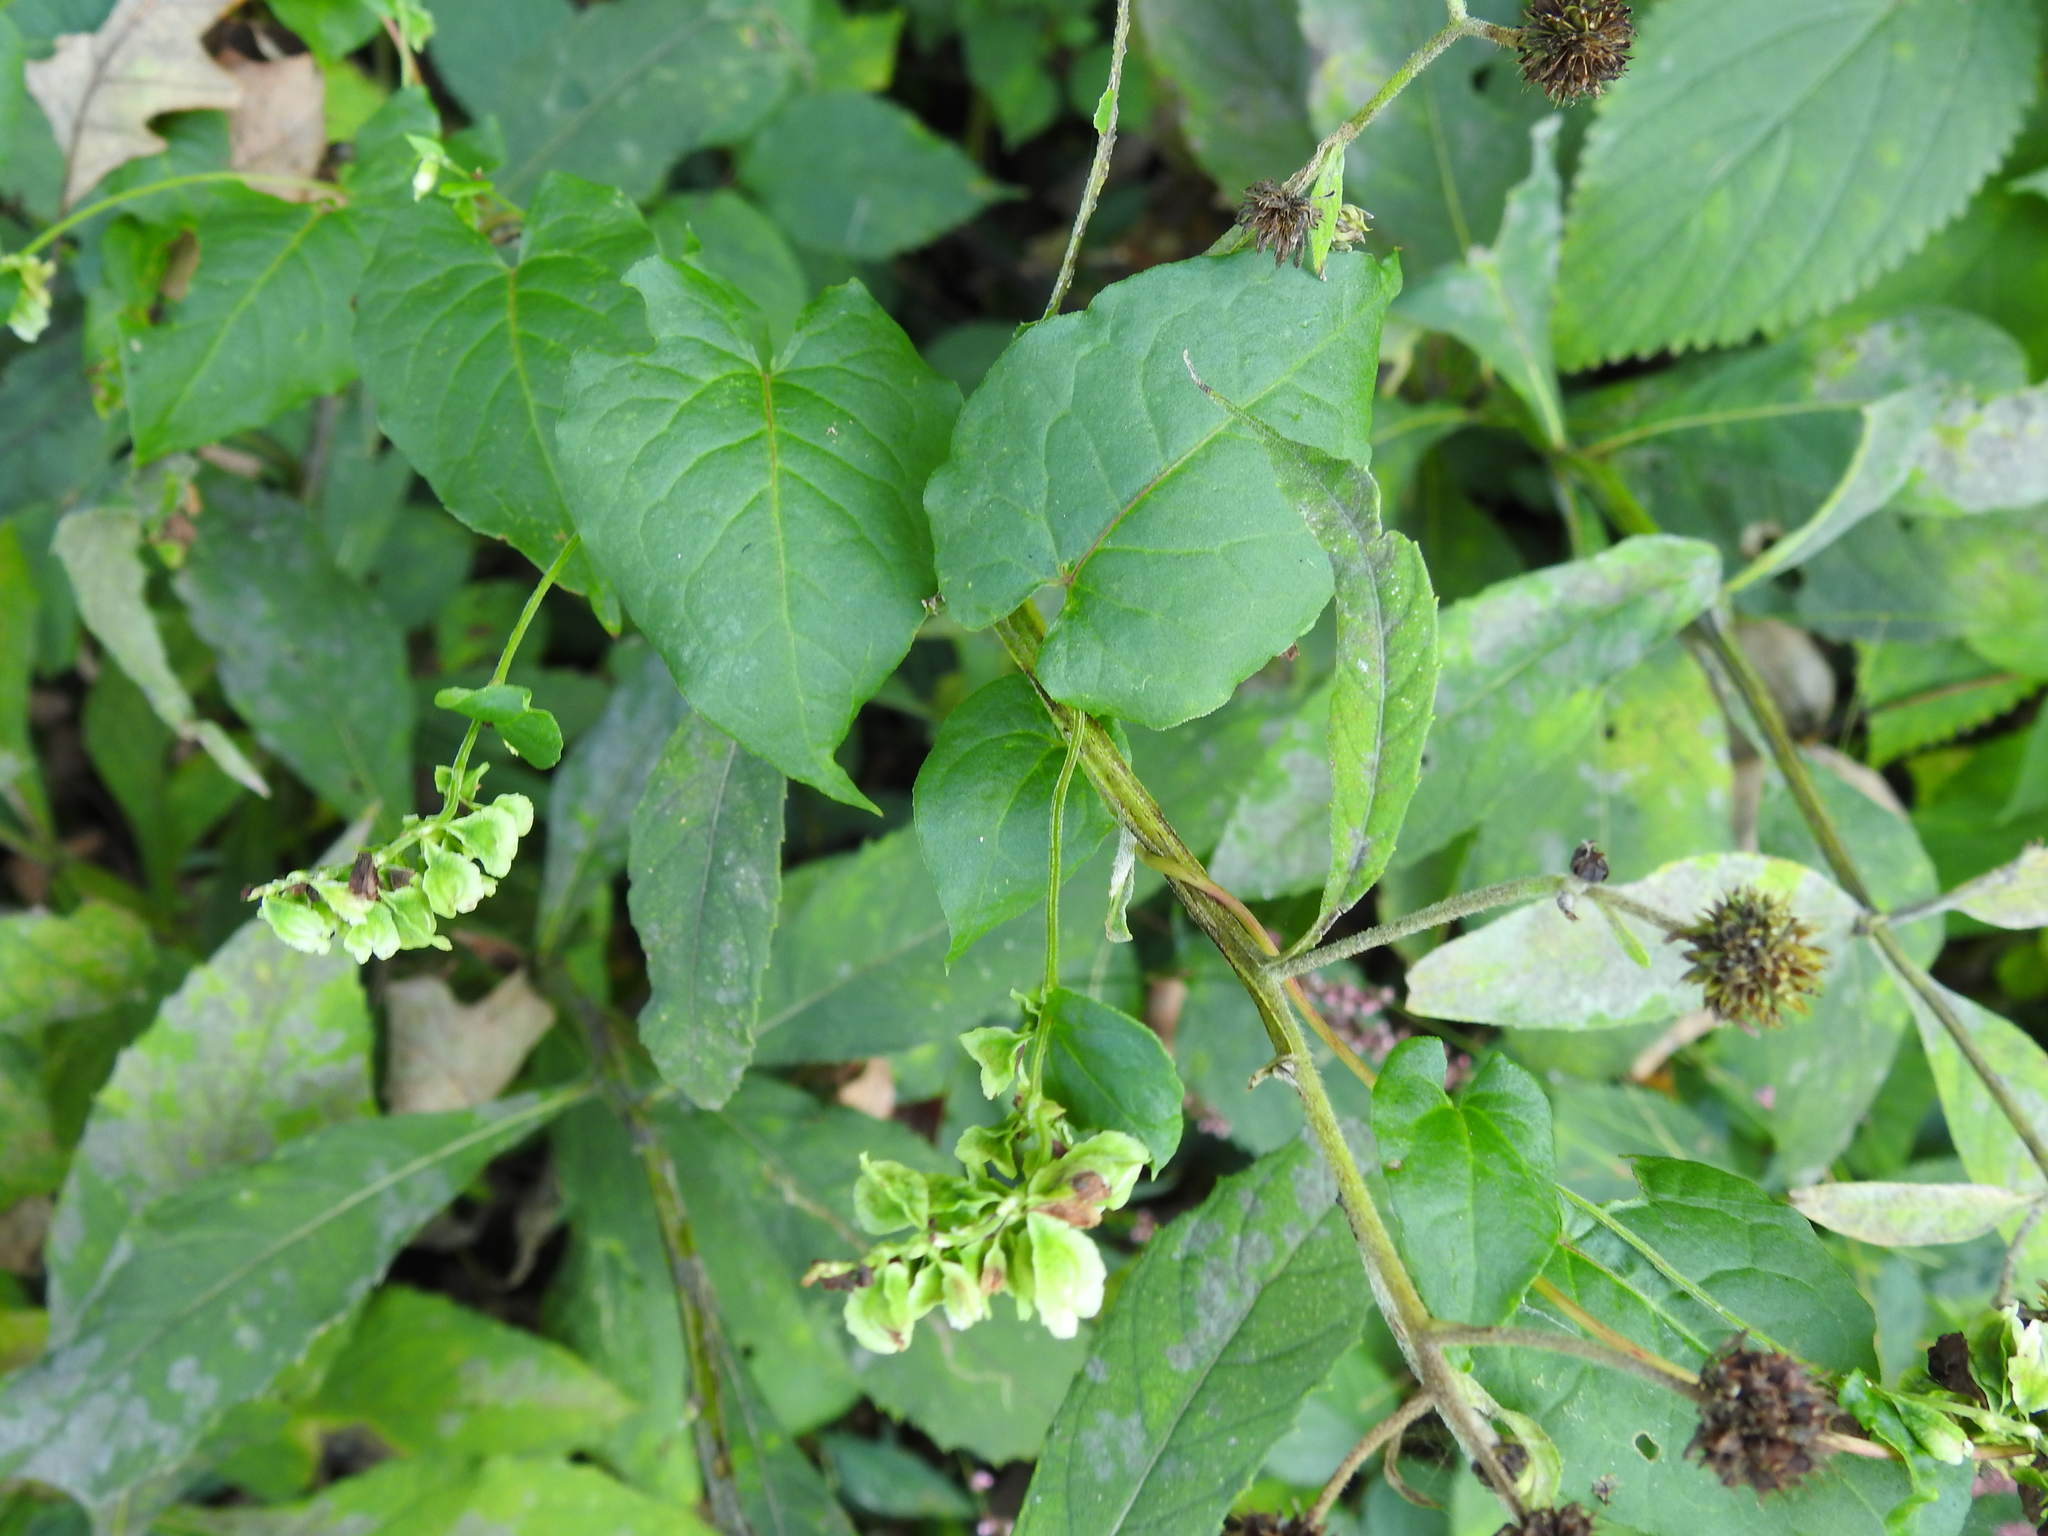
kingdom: Plantae
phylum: Tracheophyta
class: Magnoliopsida
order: Caryophyllales
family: Polygonaceae
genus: Fallopia
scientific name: Fallopia scandens
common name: Climbing false buckwheat
